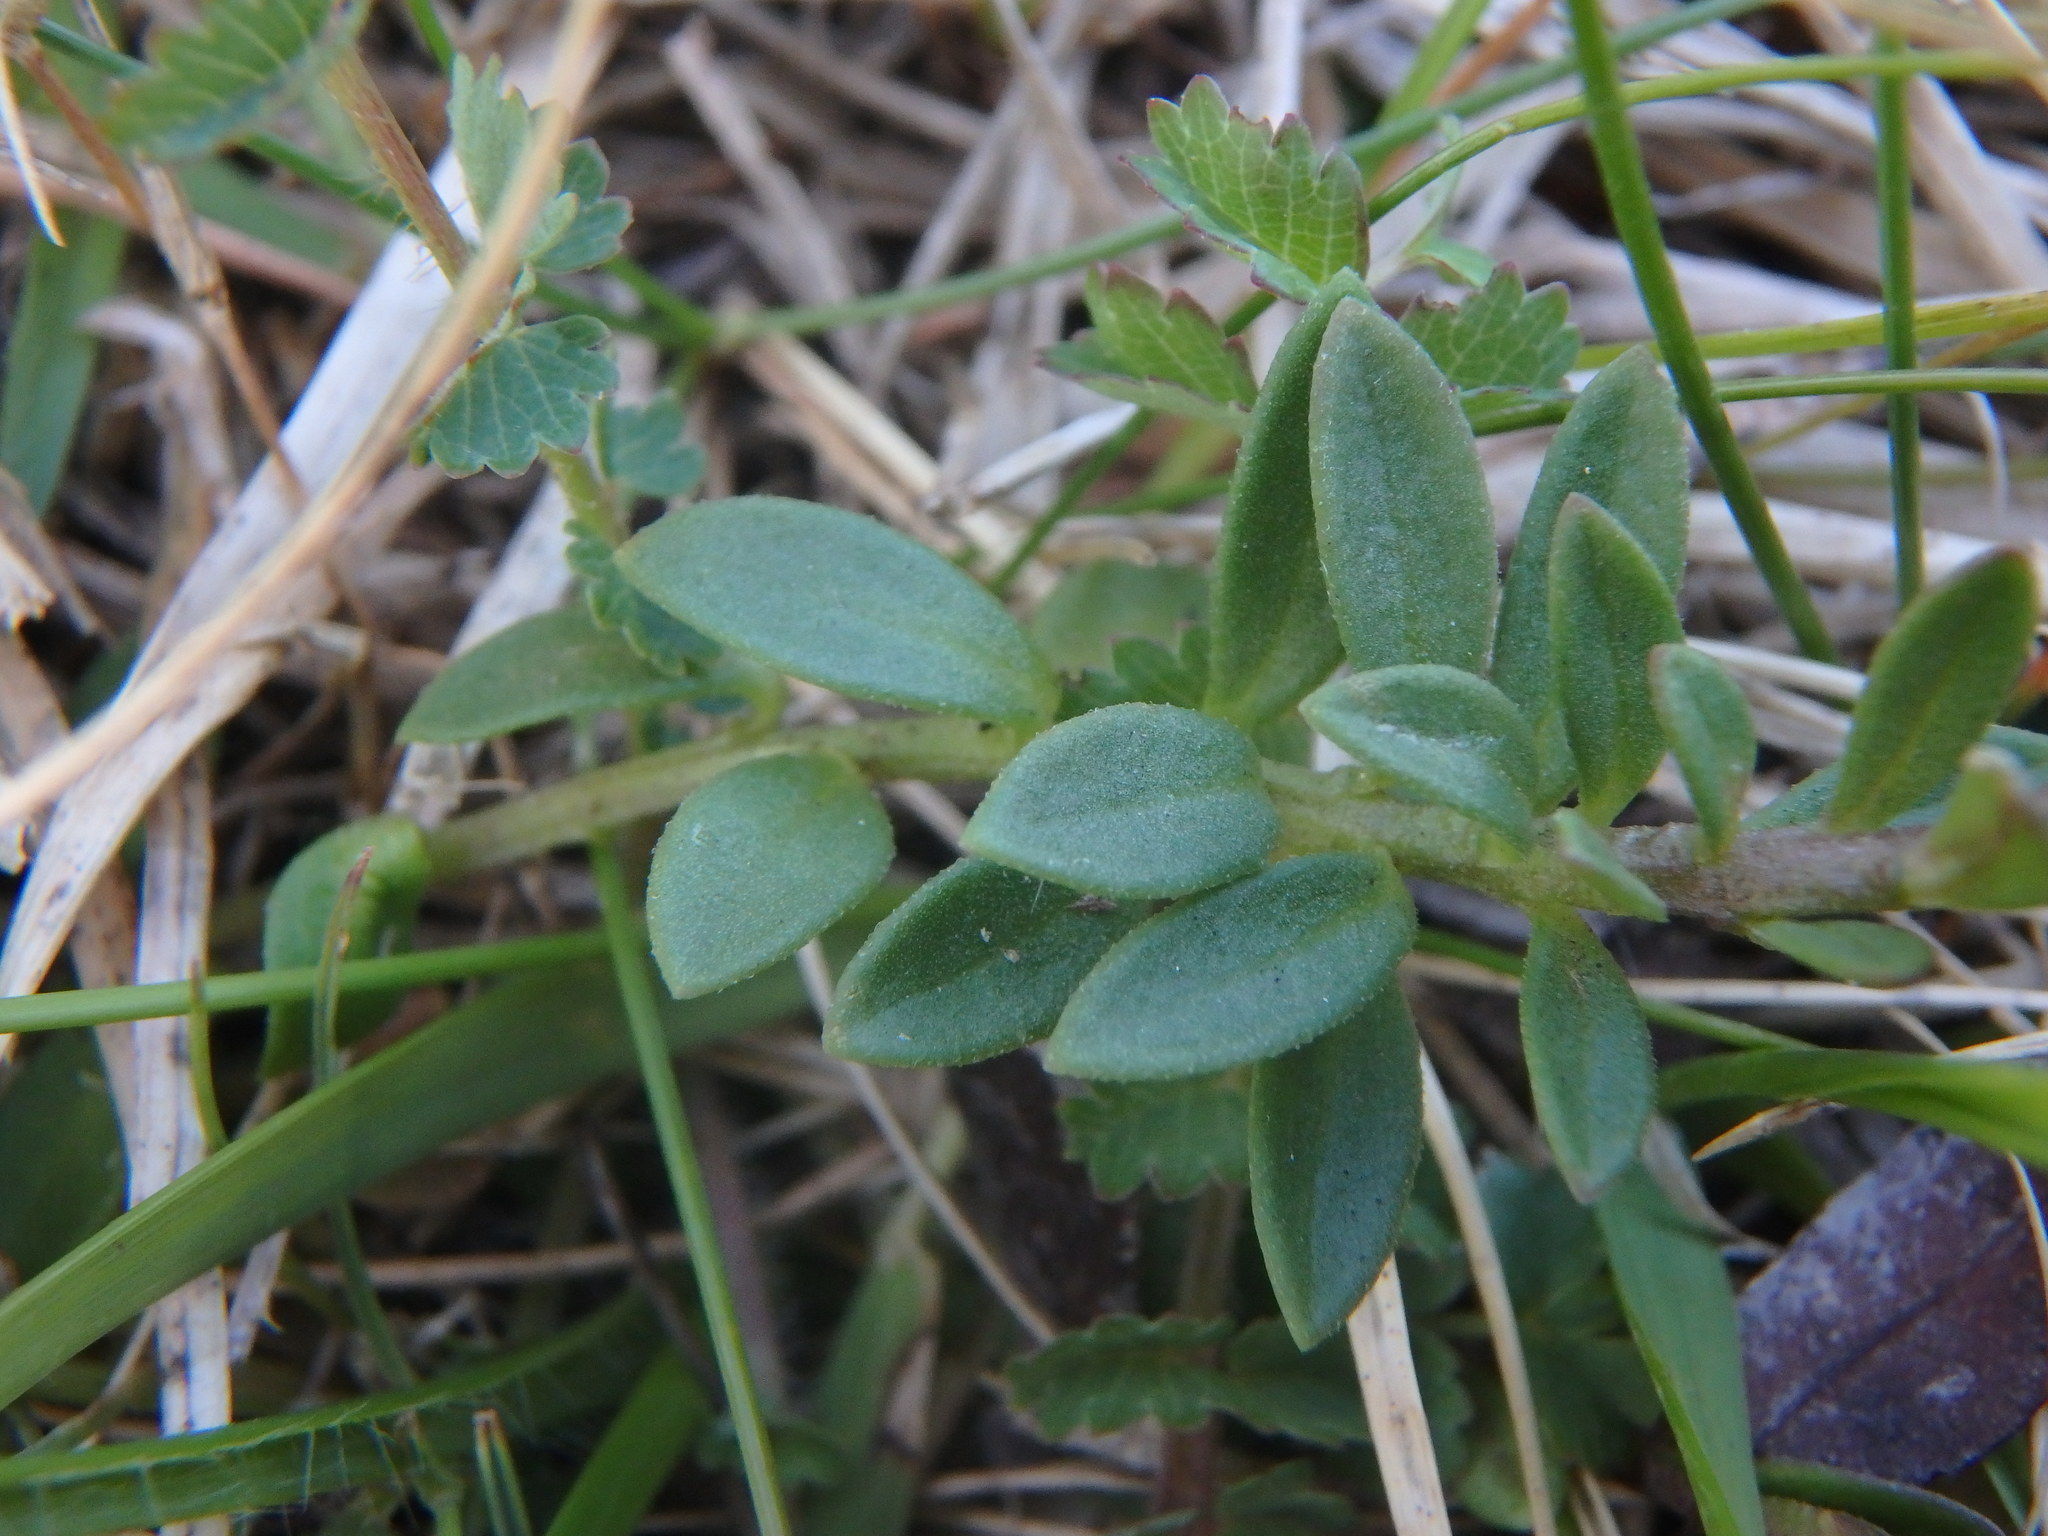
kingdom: Plantae
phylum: Tracheophyta
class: Magnoliopsida
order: Fabales
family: Polygalaceae
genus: Polygala
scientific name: Polygala vulgaris
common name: Common milkwort
